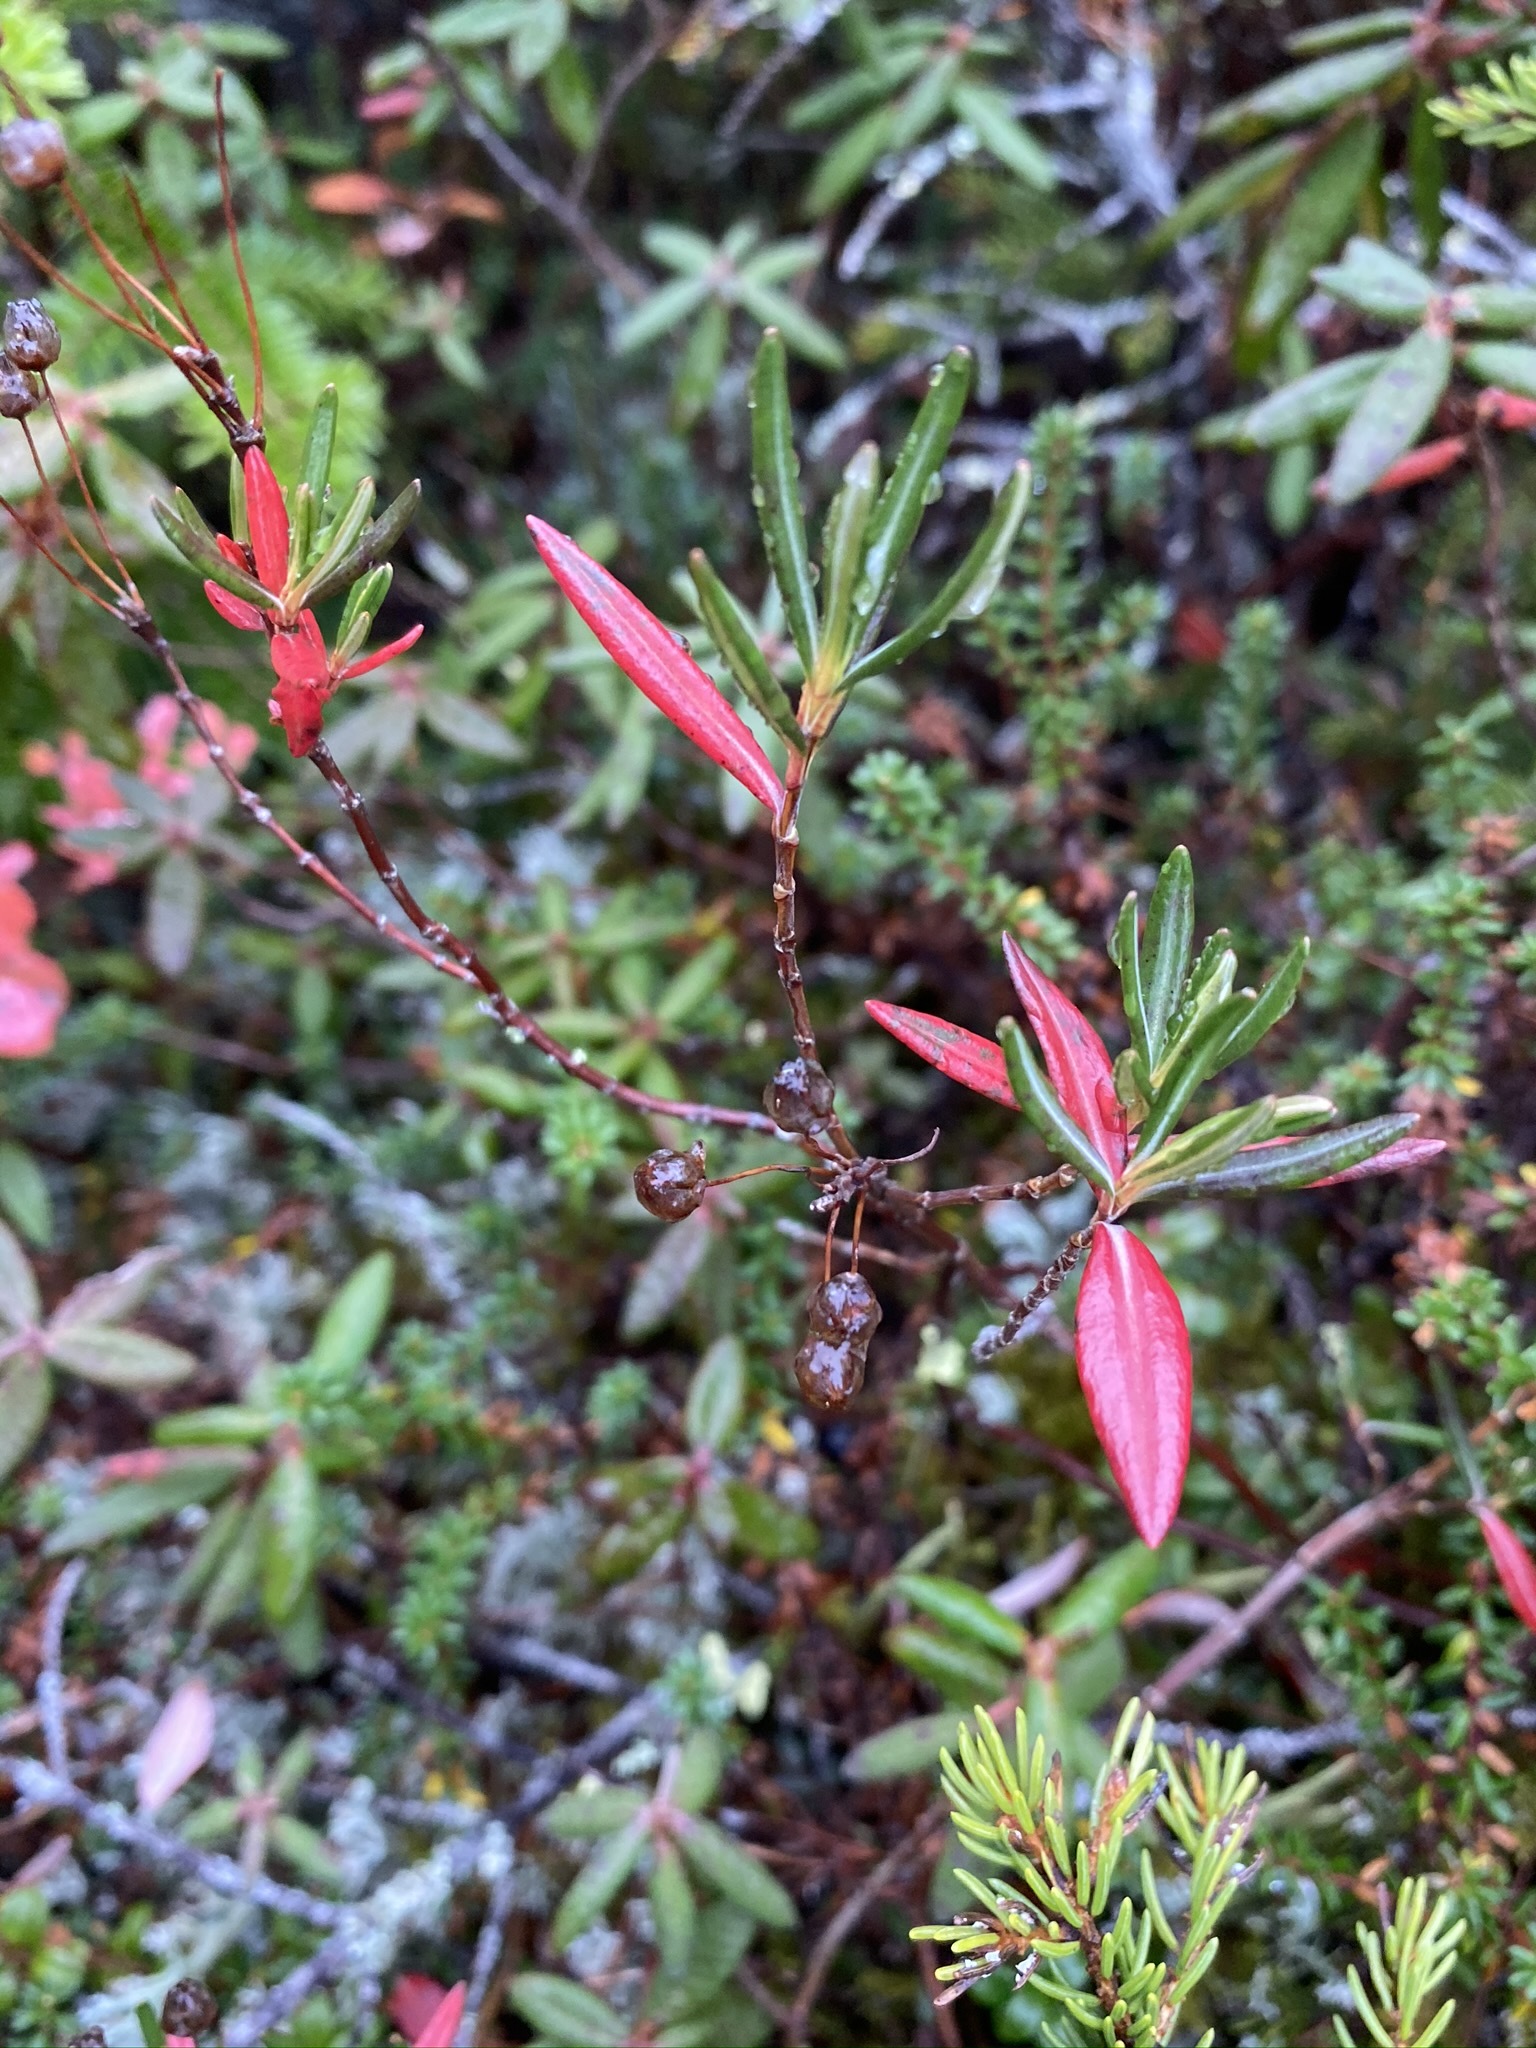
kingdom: Plantae
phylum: Tracheophyta
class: Magnoliopsida
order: Ericales
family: Ericaceae
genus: Kalmia
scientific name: Kalmia polifolia
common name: Bog-laurel
